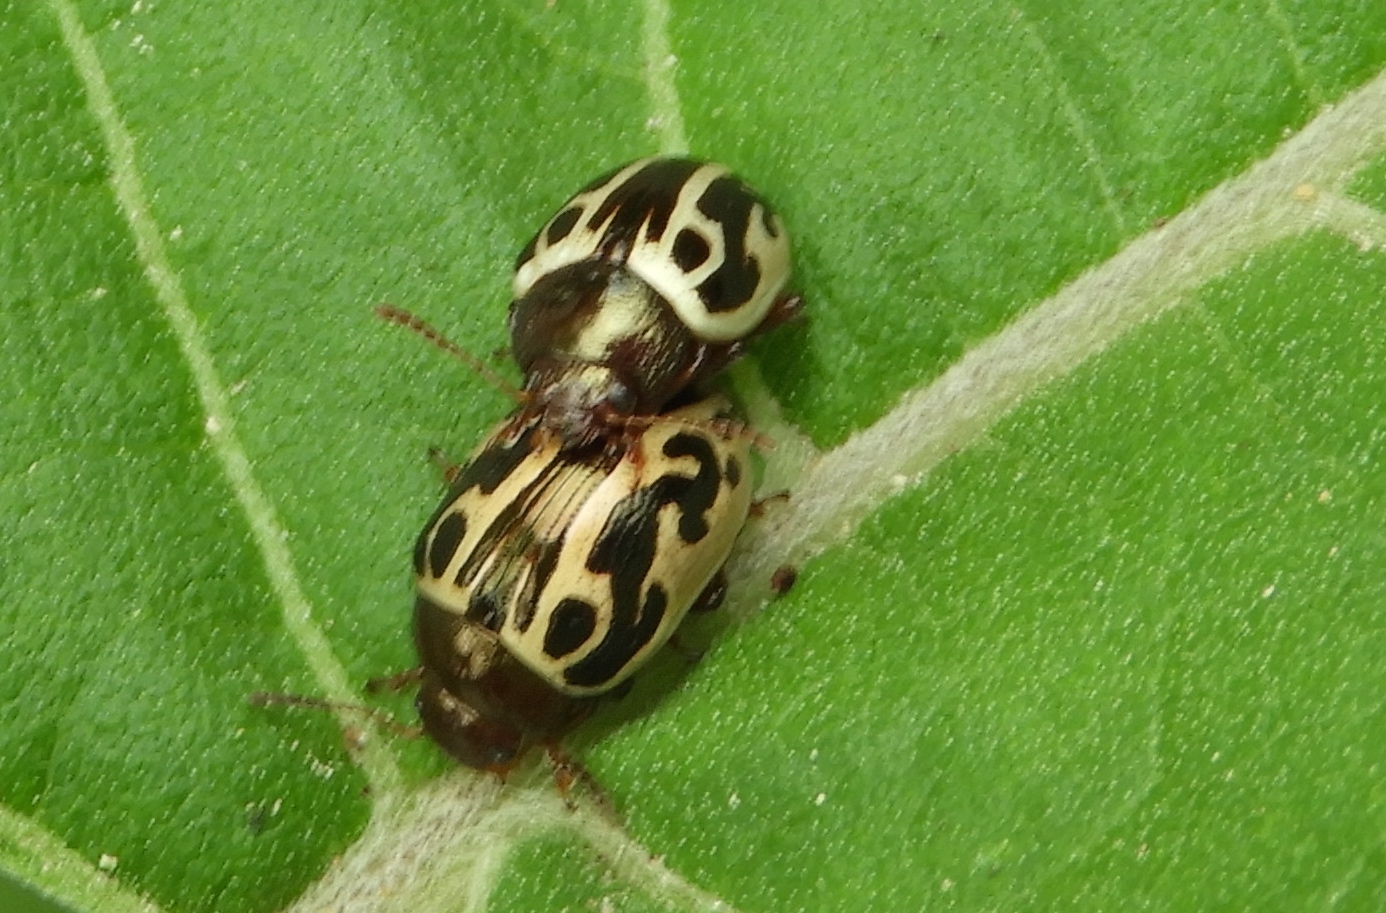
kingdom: Animalia
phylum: Arthropoda
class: Insecta
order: Coleoptera
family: Chrysomelidae
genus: Calligrapha
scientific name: Calligrapha
